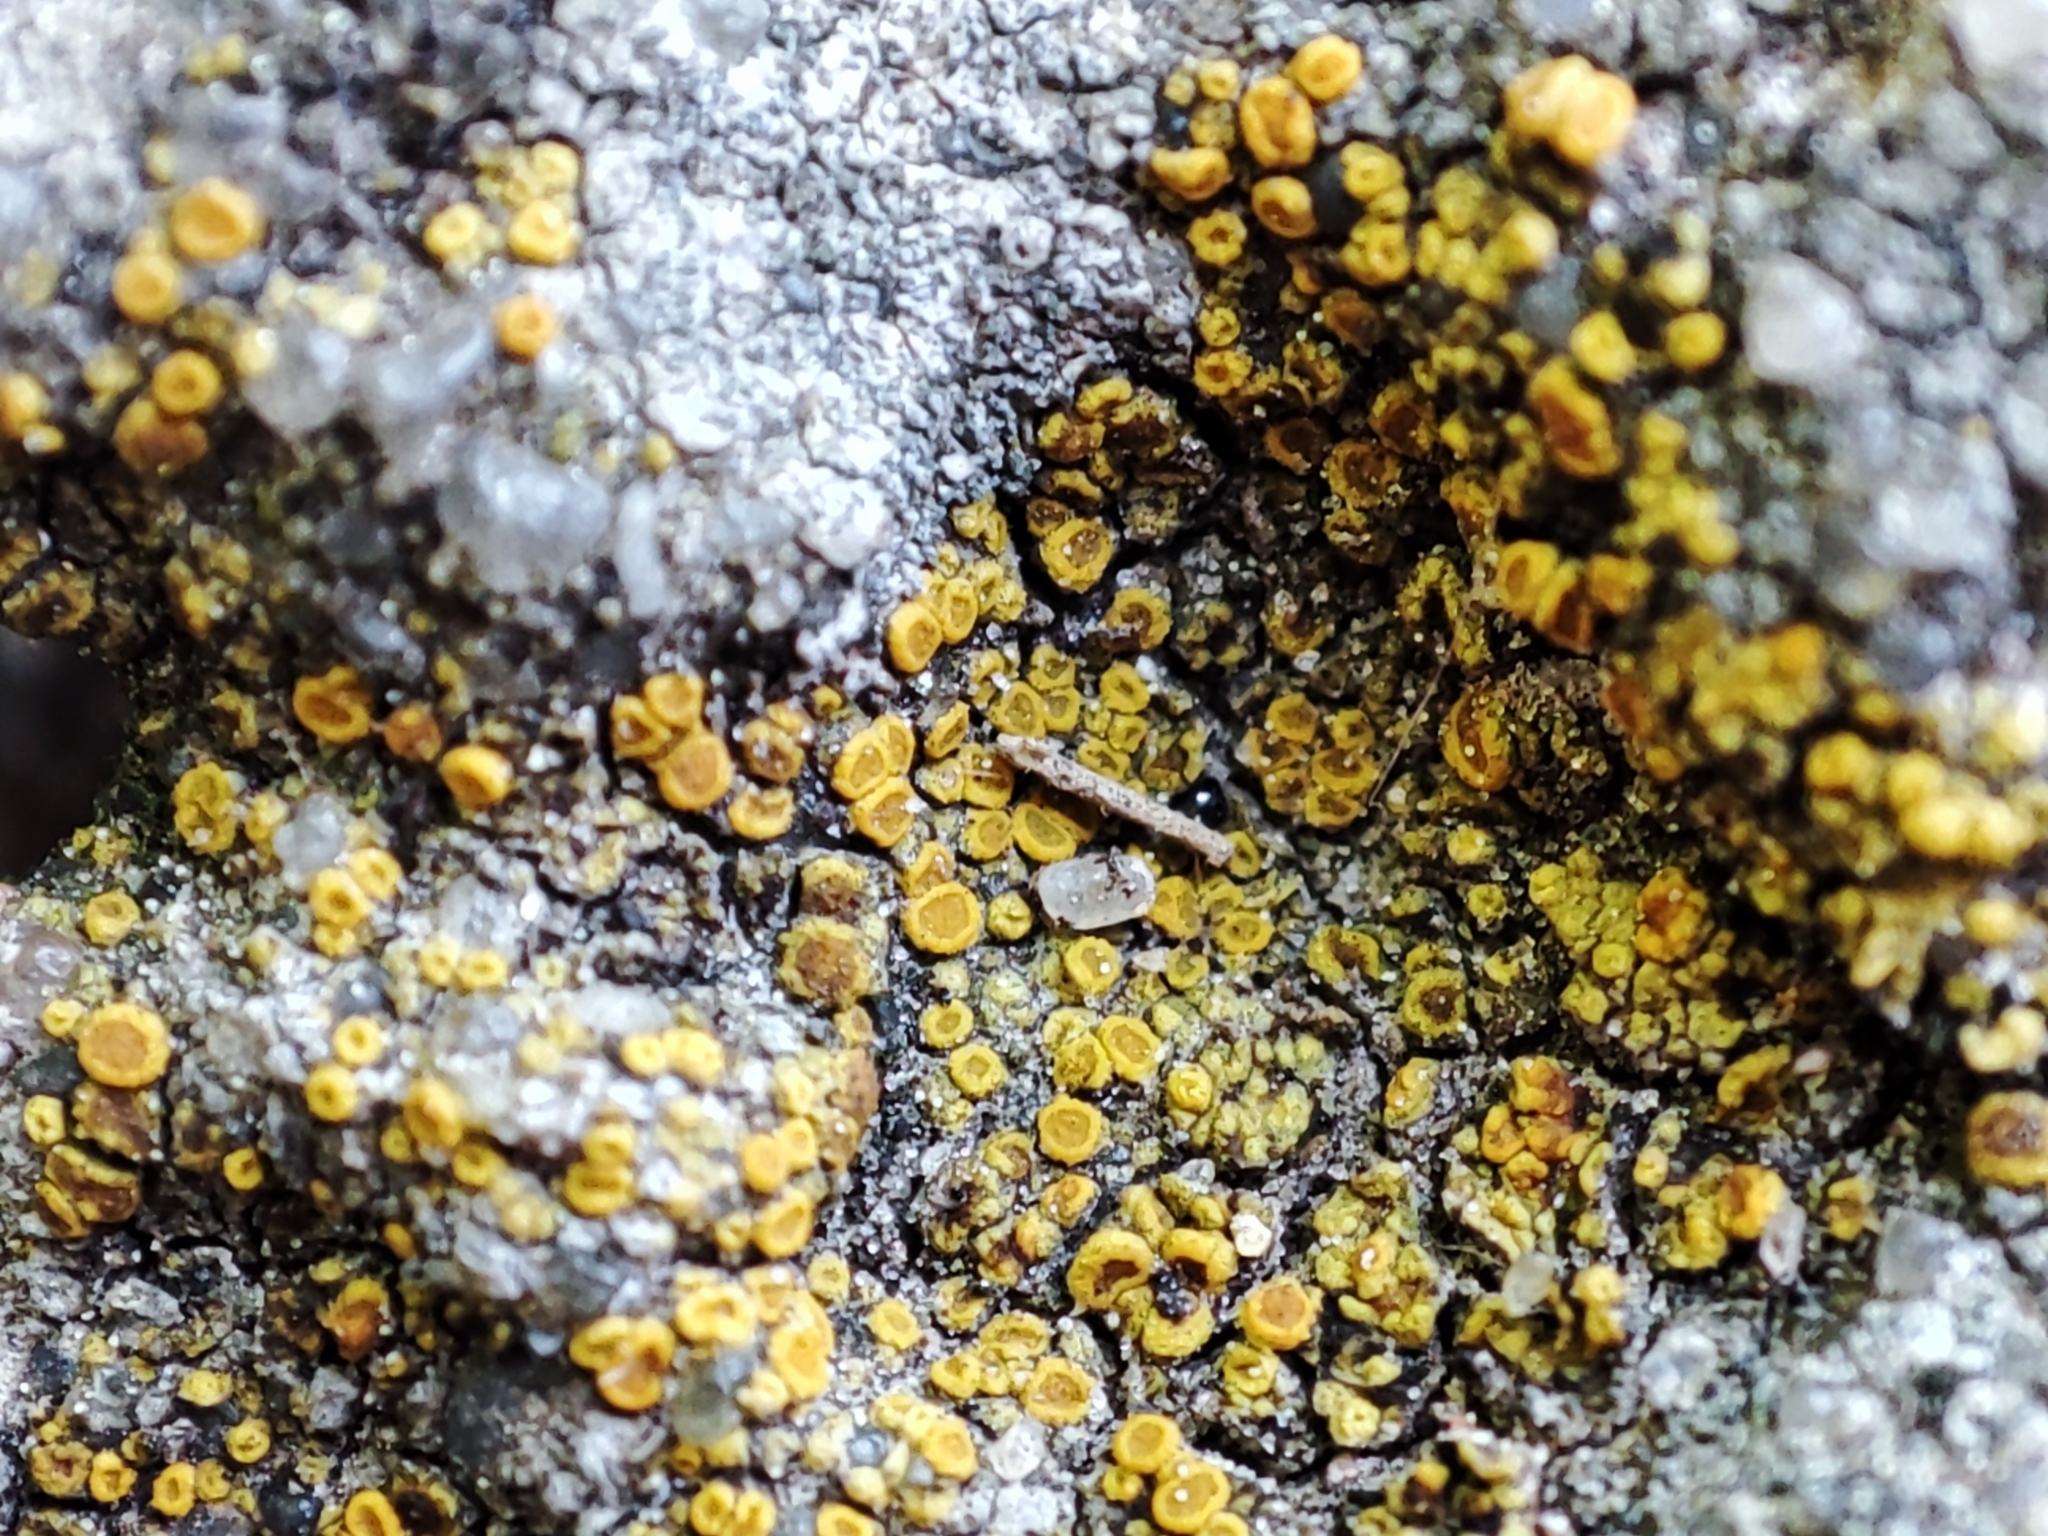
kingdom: Fungi
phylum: Ascomycota
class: Lecanoromycetes
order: Teloschistales
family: Teloschistaceae
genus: Xanthocarpia
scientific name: Xanthocarpia crenulatella
